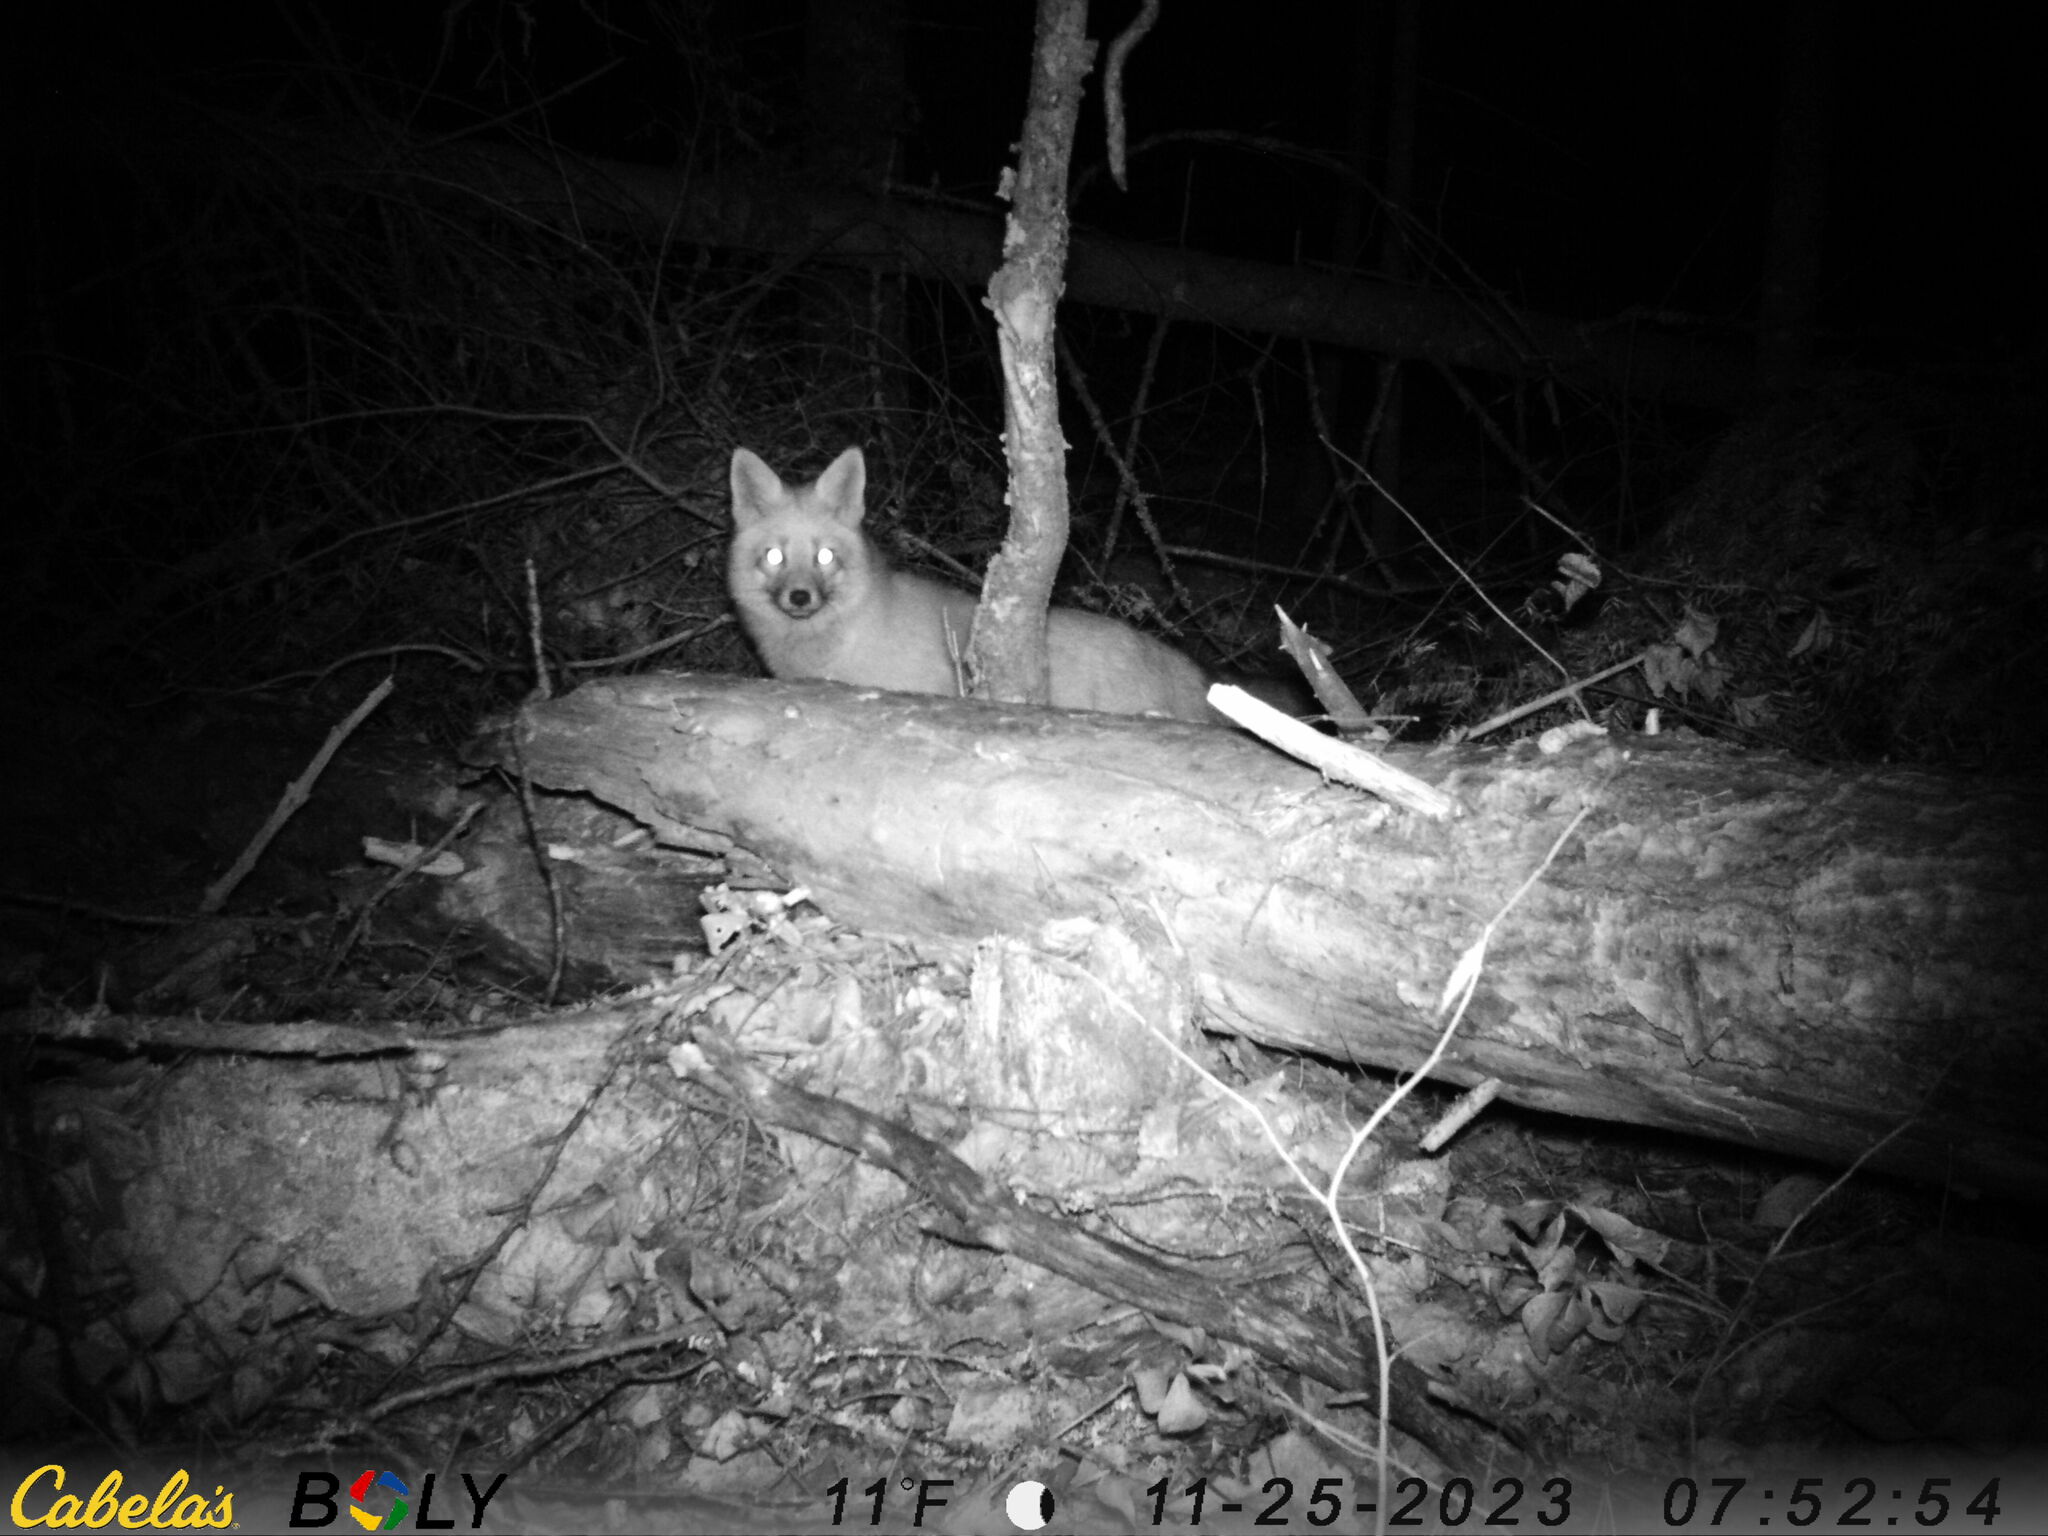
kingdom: Animalia
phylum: Chordata
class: Mammalia
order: Carnivora
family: Canidae
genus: Vulpes
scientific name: Vulpes vulpes
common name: Red fox
